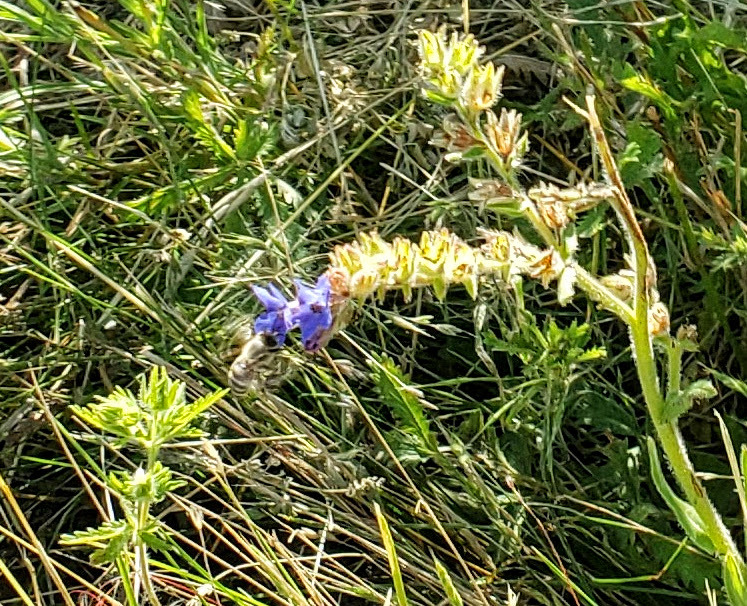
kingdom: Animalia
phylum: Arthropoda
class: Insecta
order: Hymenoptera
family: Apidae
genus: Apis
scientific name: Apis mellifera
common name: Honey bee
